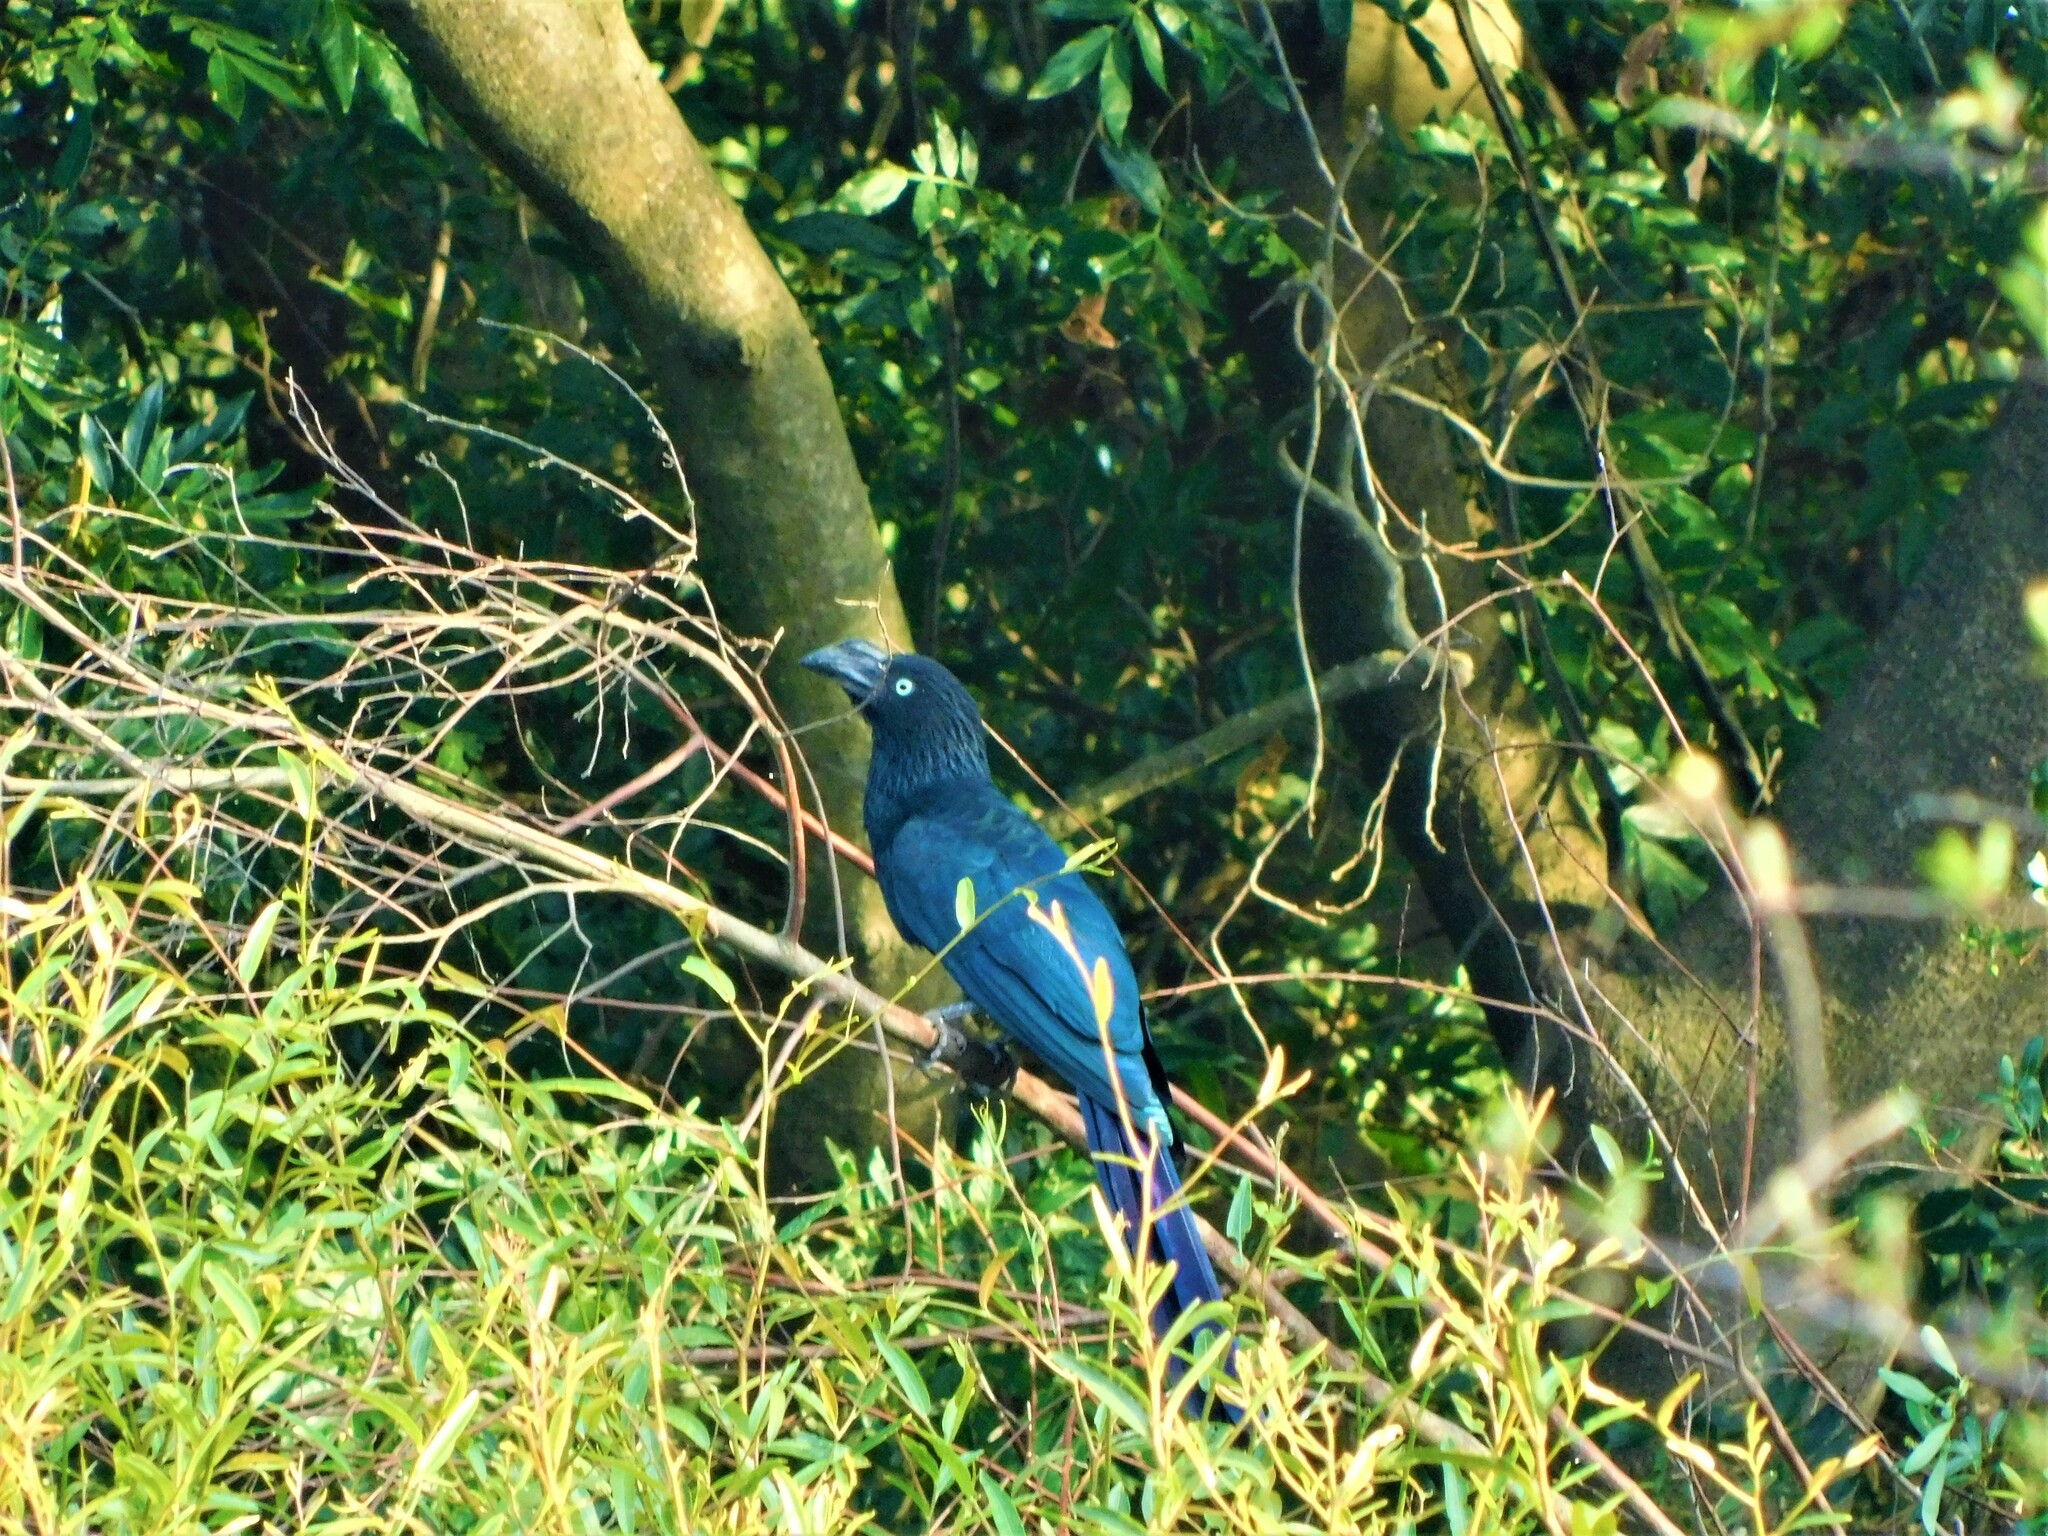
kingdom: Animalia
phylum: Chordata
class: Aves
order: Cuculiformes
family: Cuculidae
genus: Crotophaga
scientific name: Crotophaga major
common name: Greater ani
